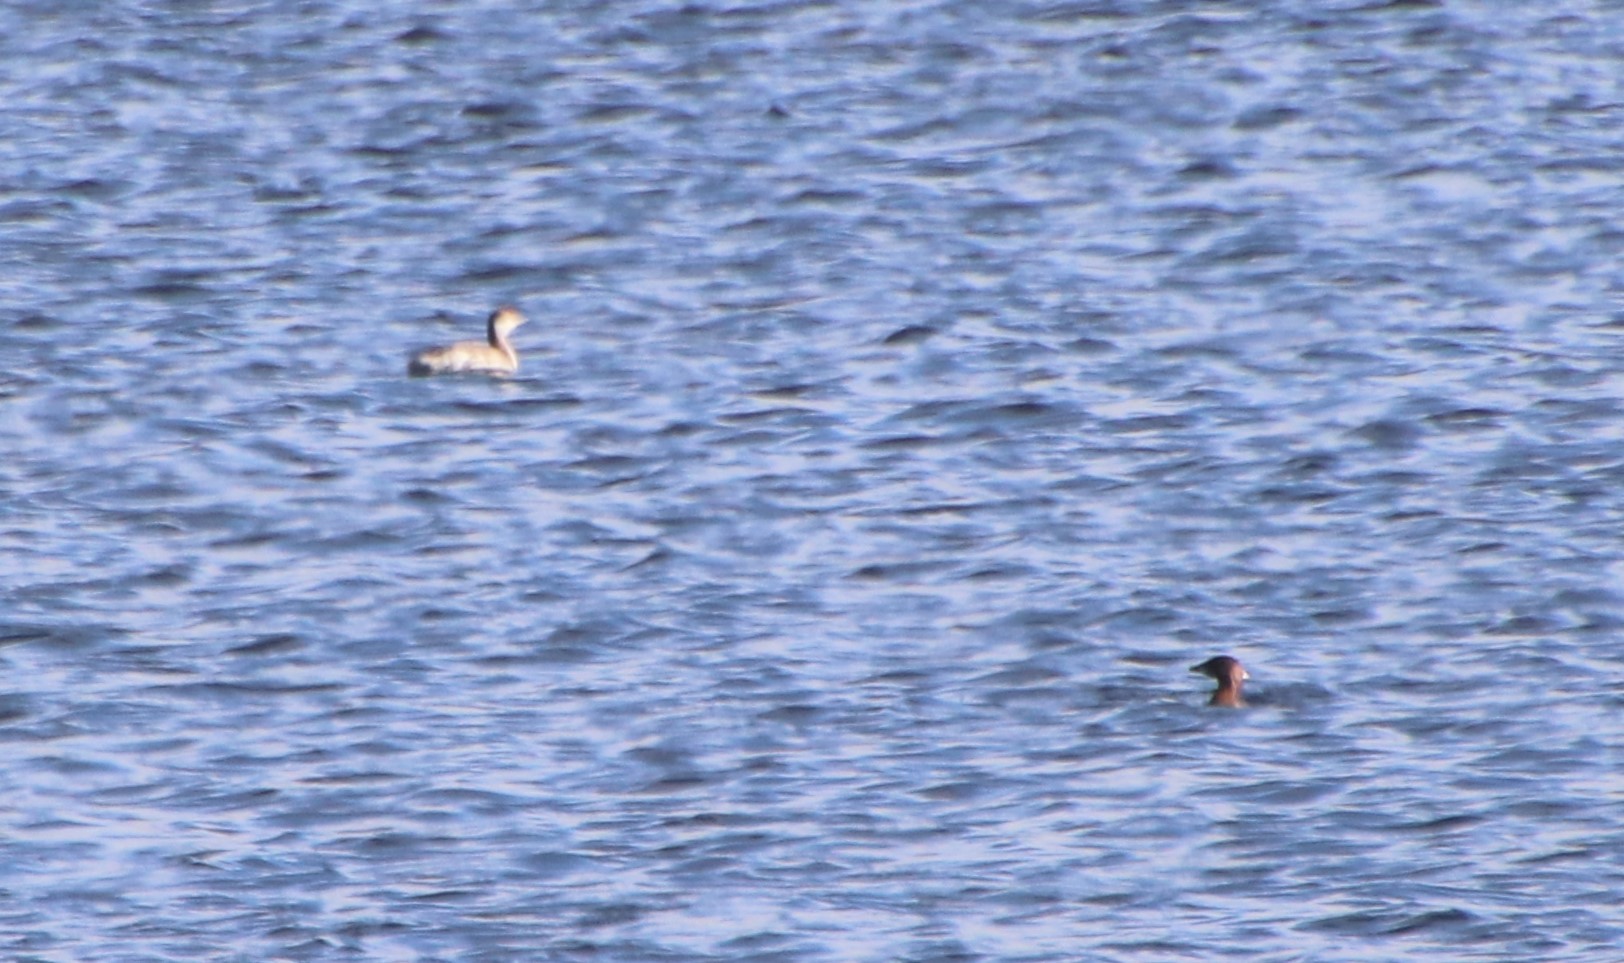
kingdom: Animalia
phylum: Chordata
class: Aves
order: Podicipediformes
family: Podicipedidae
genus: Podiceps
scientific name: Podiceps auritus
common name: Horned grebe
